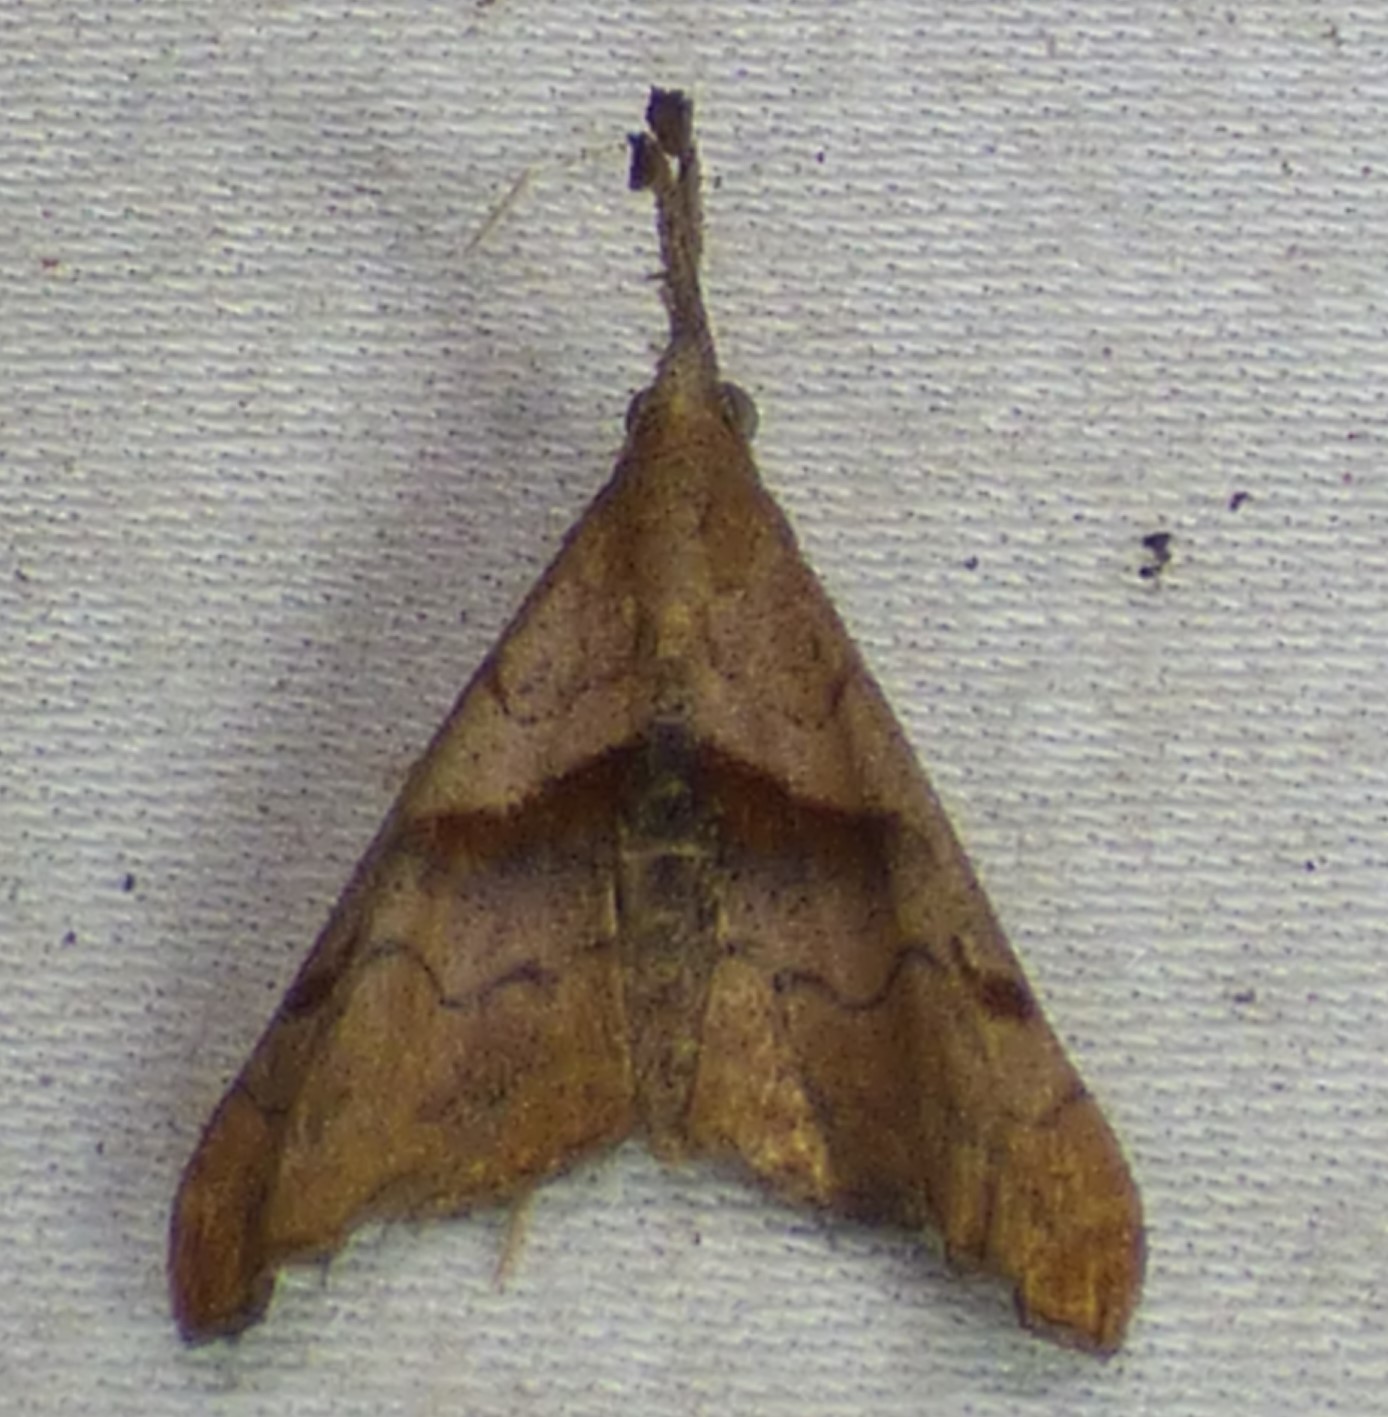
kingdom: Animalia
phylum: Arthropoda
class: Insecta
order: Lepidoptera
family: Erebidae
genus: Palthis
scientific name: Palthis angulalis
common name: Dark-spotted palthis moth
